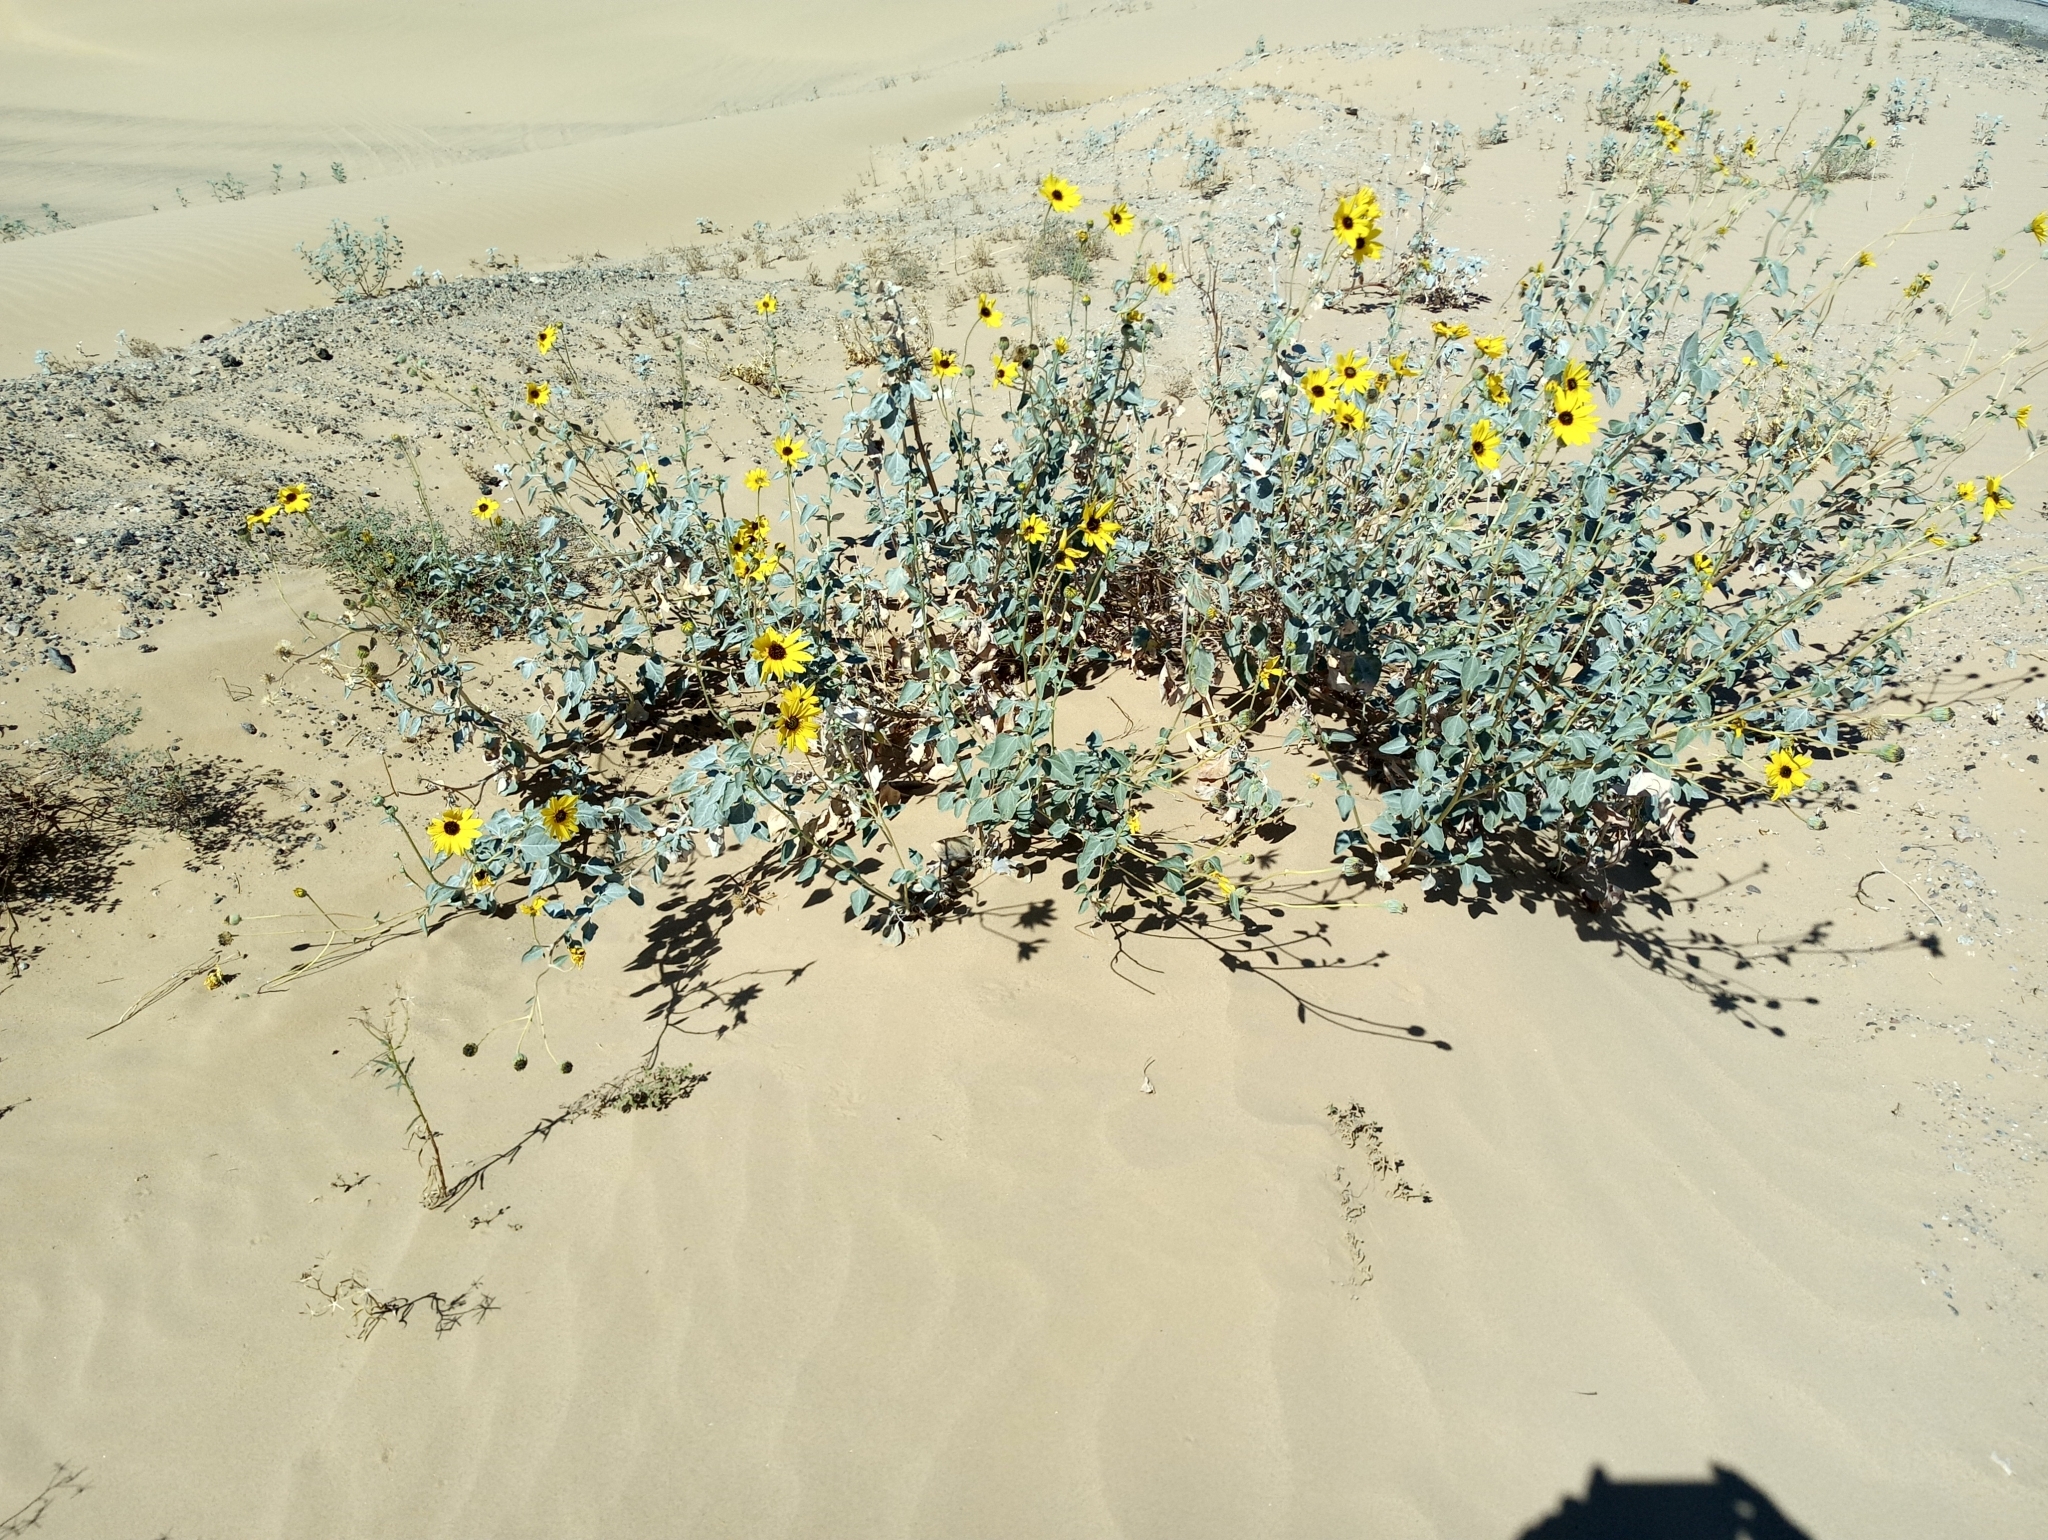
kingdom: Plantae
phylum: Tracheophyta
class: Magnoliopsida
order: Asterales
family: Asteraceae
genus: Helianthus
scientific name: Helianthus niveus
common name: Snowy sunflower
